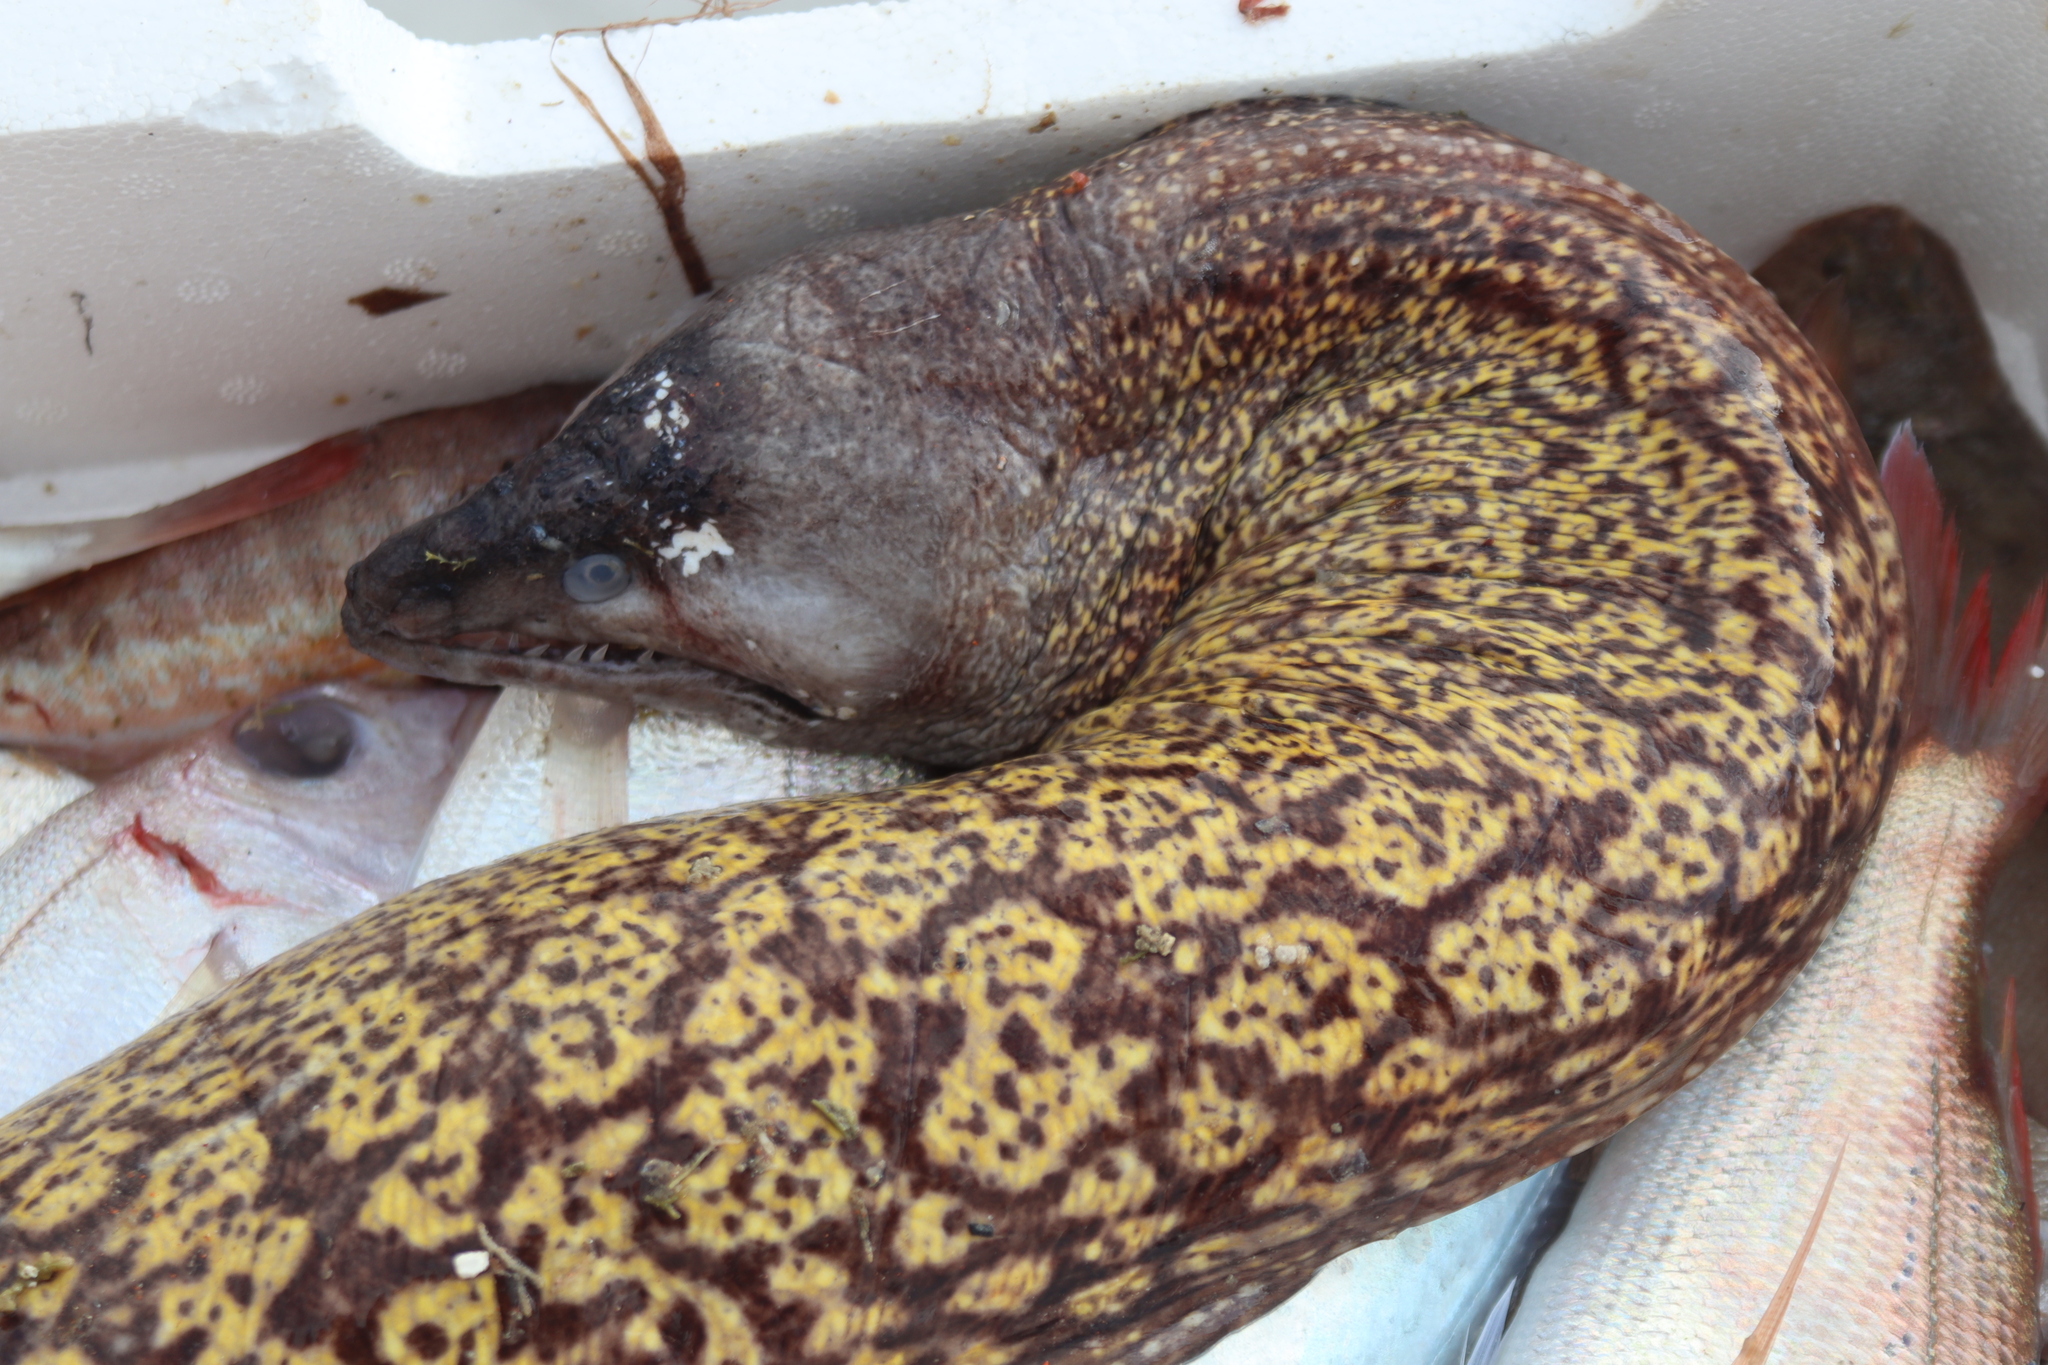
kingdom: Animalia
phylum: Chordata
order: Anguilliformes
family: Muraenidae
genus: Muraena
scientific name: Muraena helena
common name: Mediterranean moray
